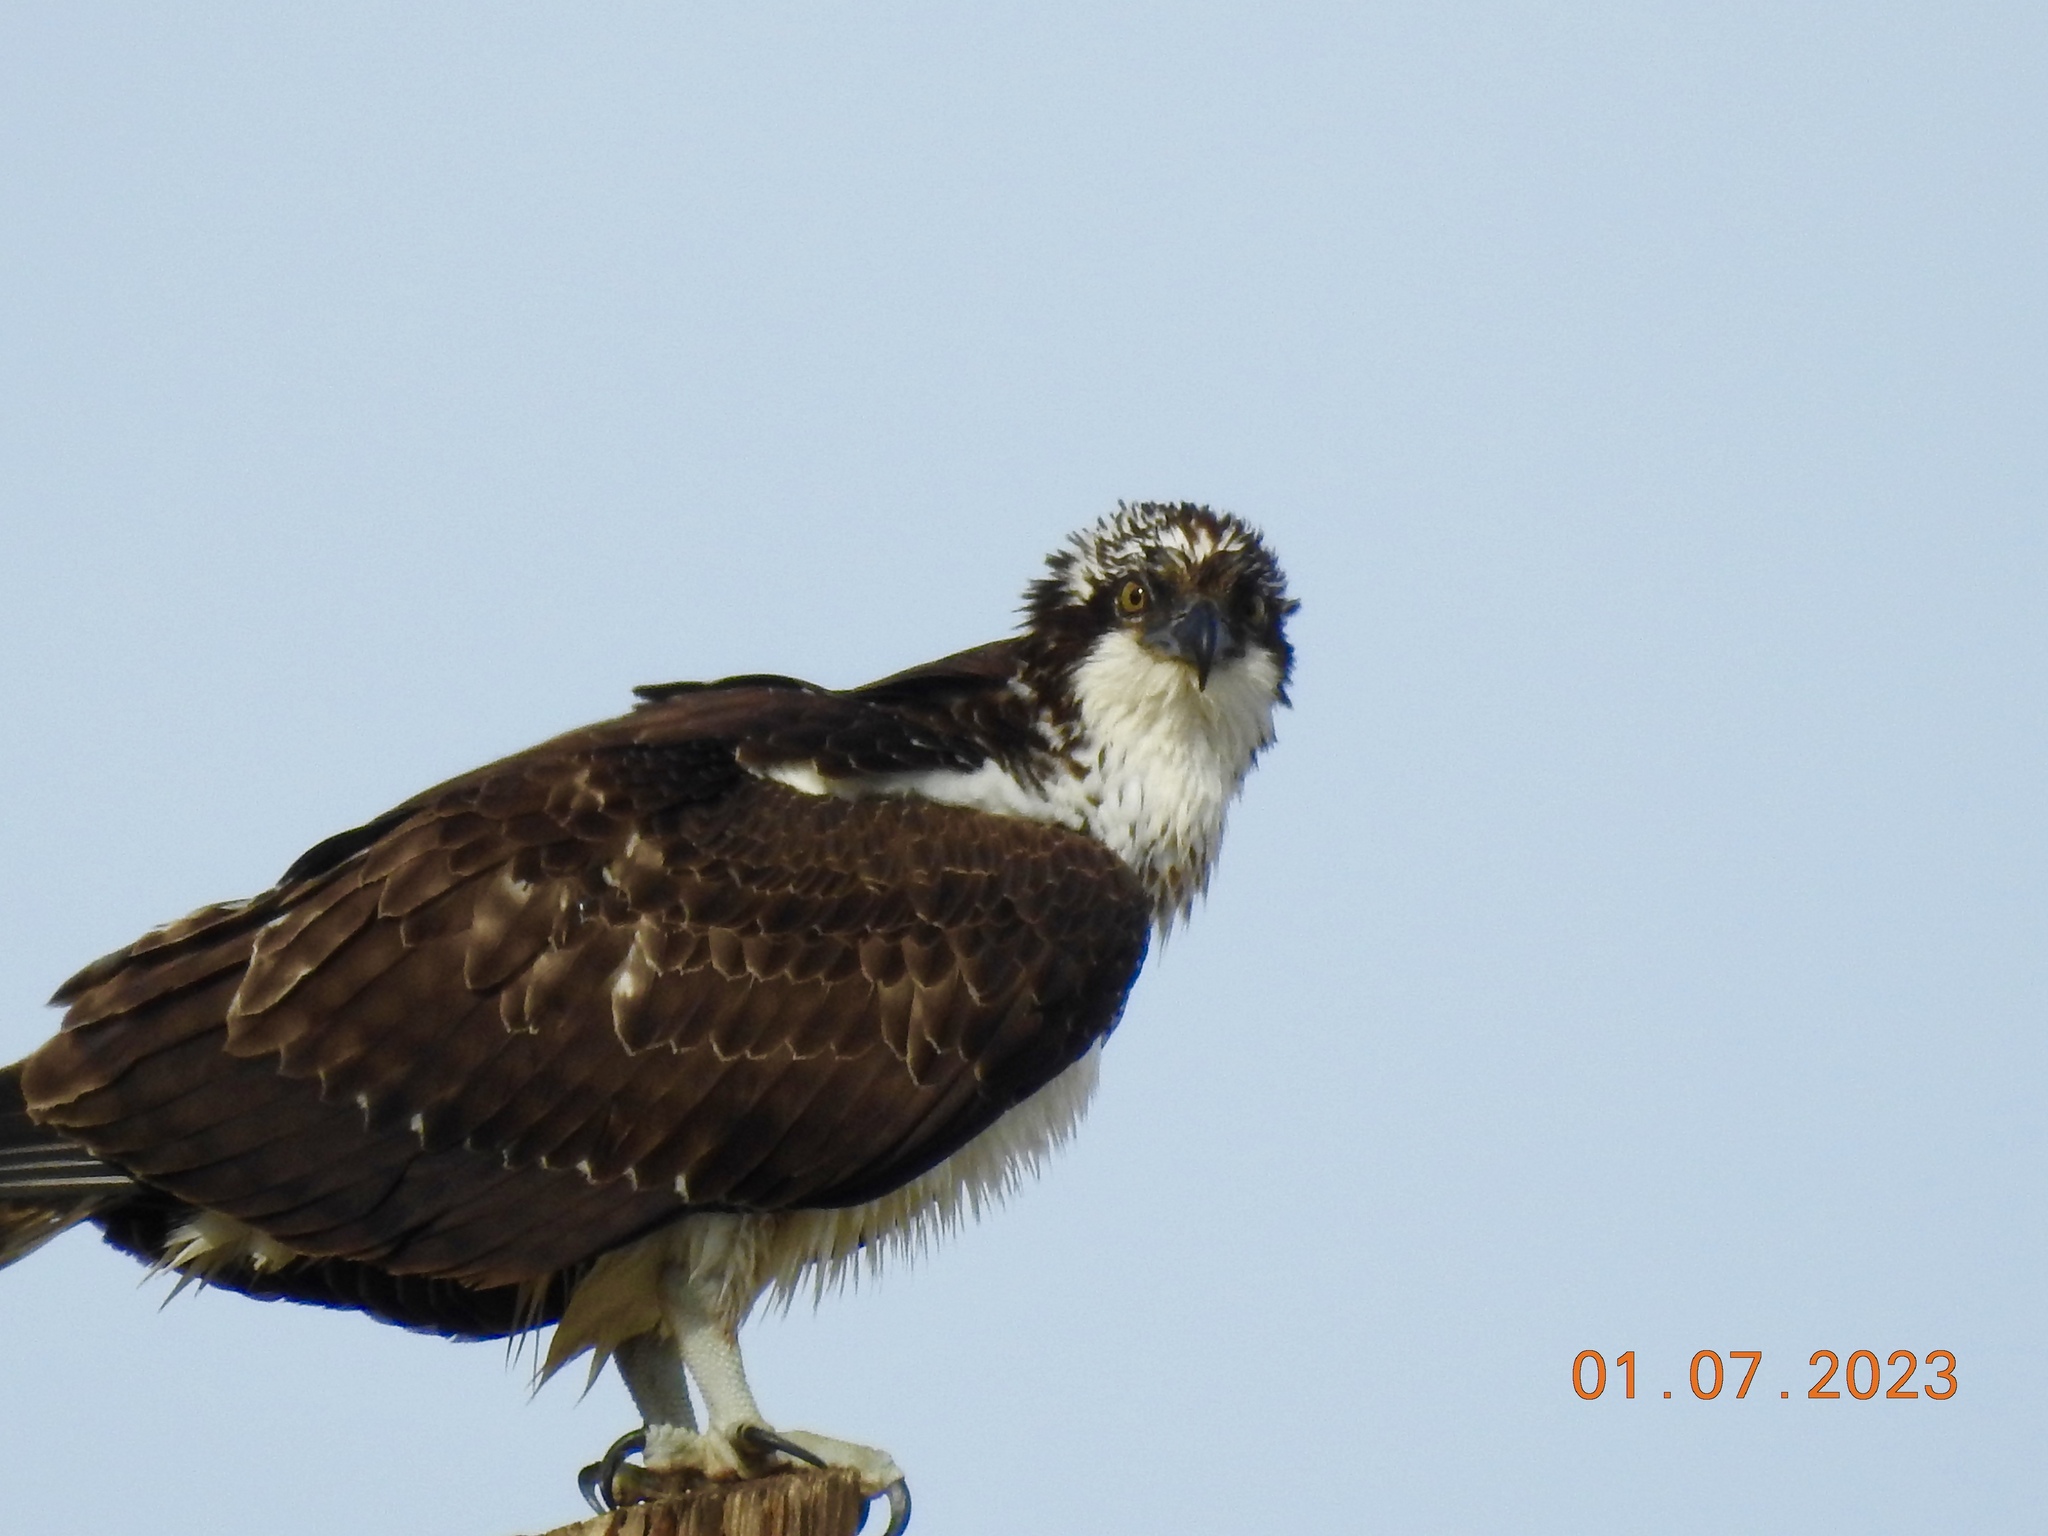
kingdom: Animalia
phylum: Chordata
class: Aves
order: Accipitriformes
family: Pandionidae
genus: Pandion
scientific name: Pandion haliaetus
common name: Osprey
